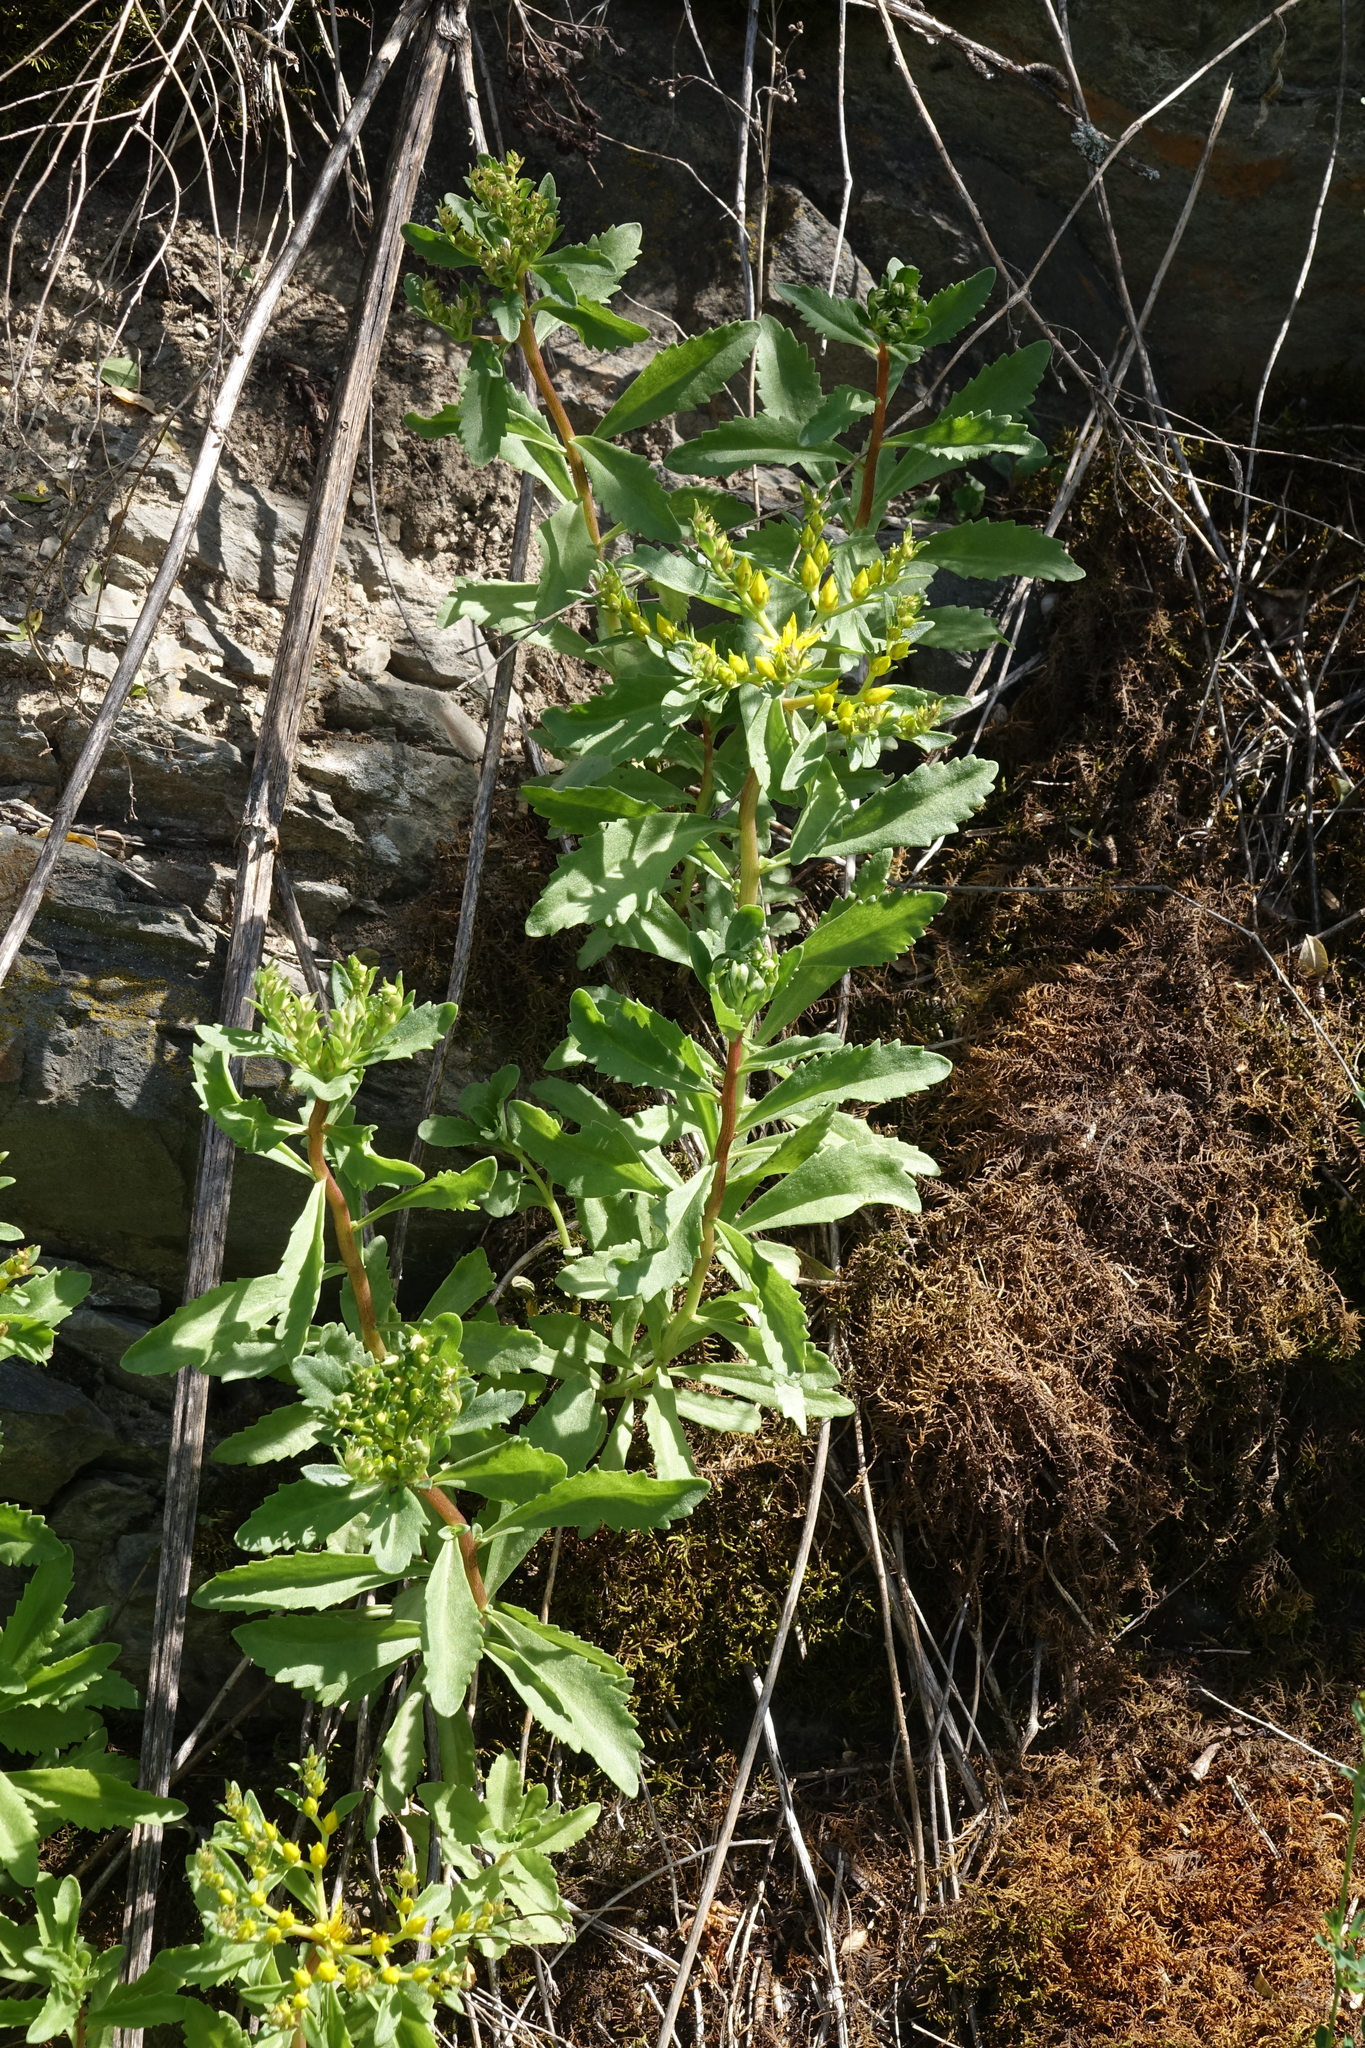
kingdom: Plantae
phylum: Tracheophyta
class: Magnoliopsida
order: Saxifragales
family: Crassulaceae
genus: Phedimus
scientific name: Phedimus aizoon
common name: Orpin aizoon
